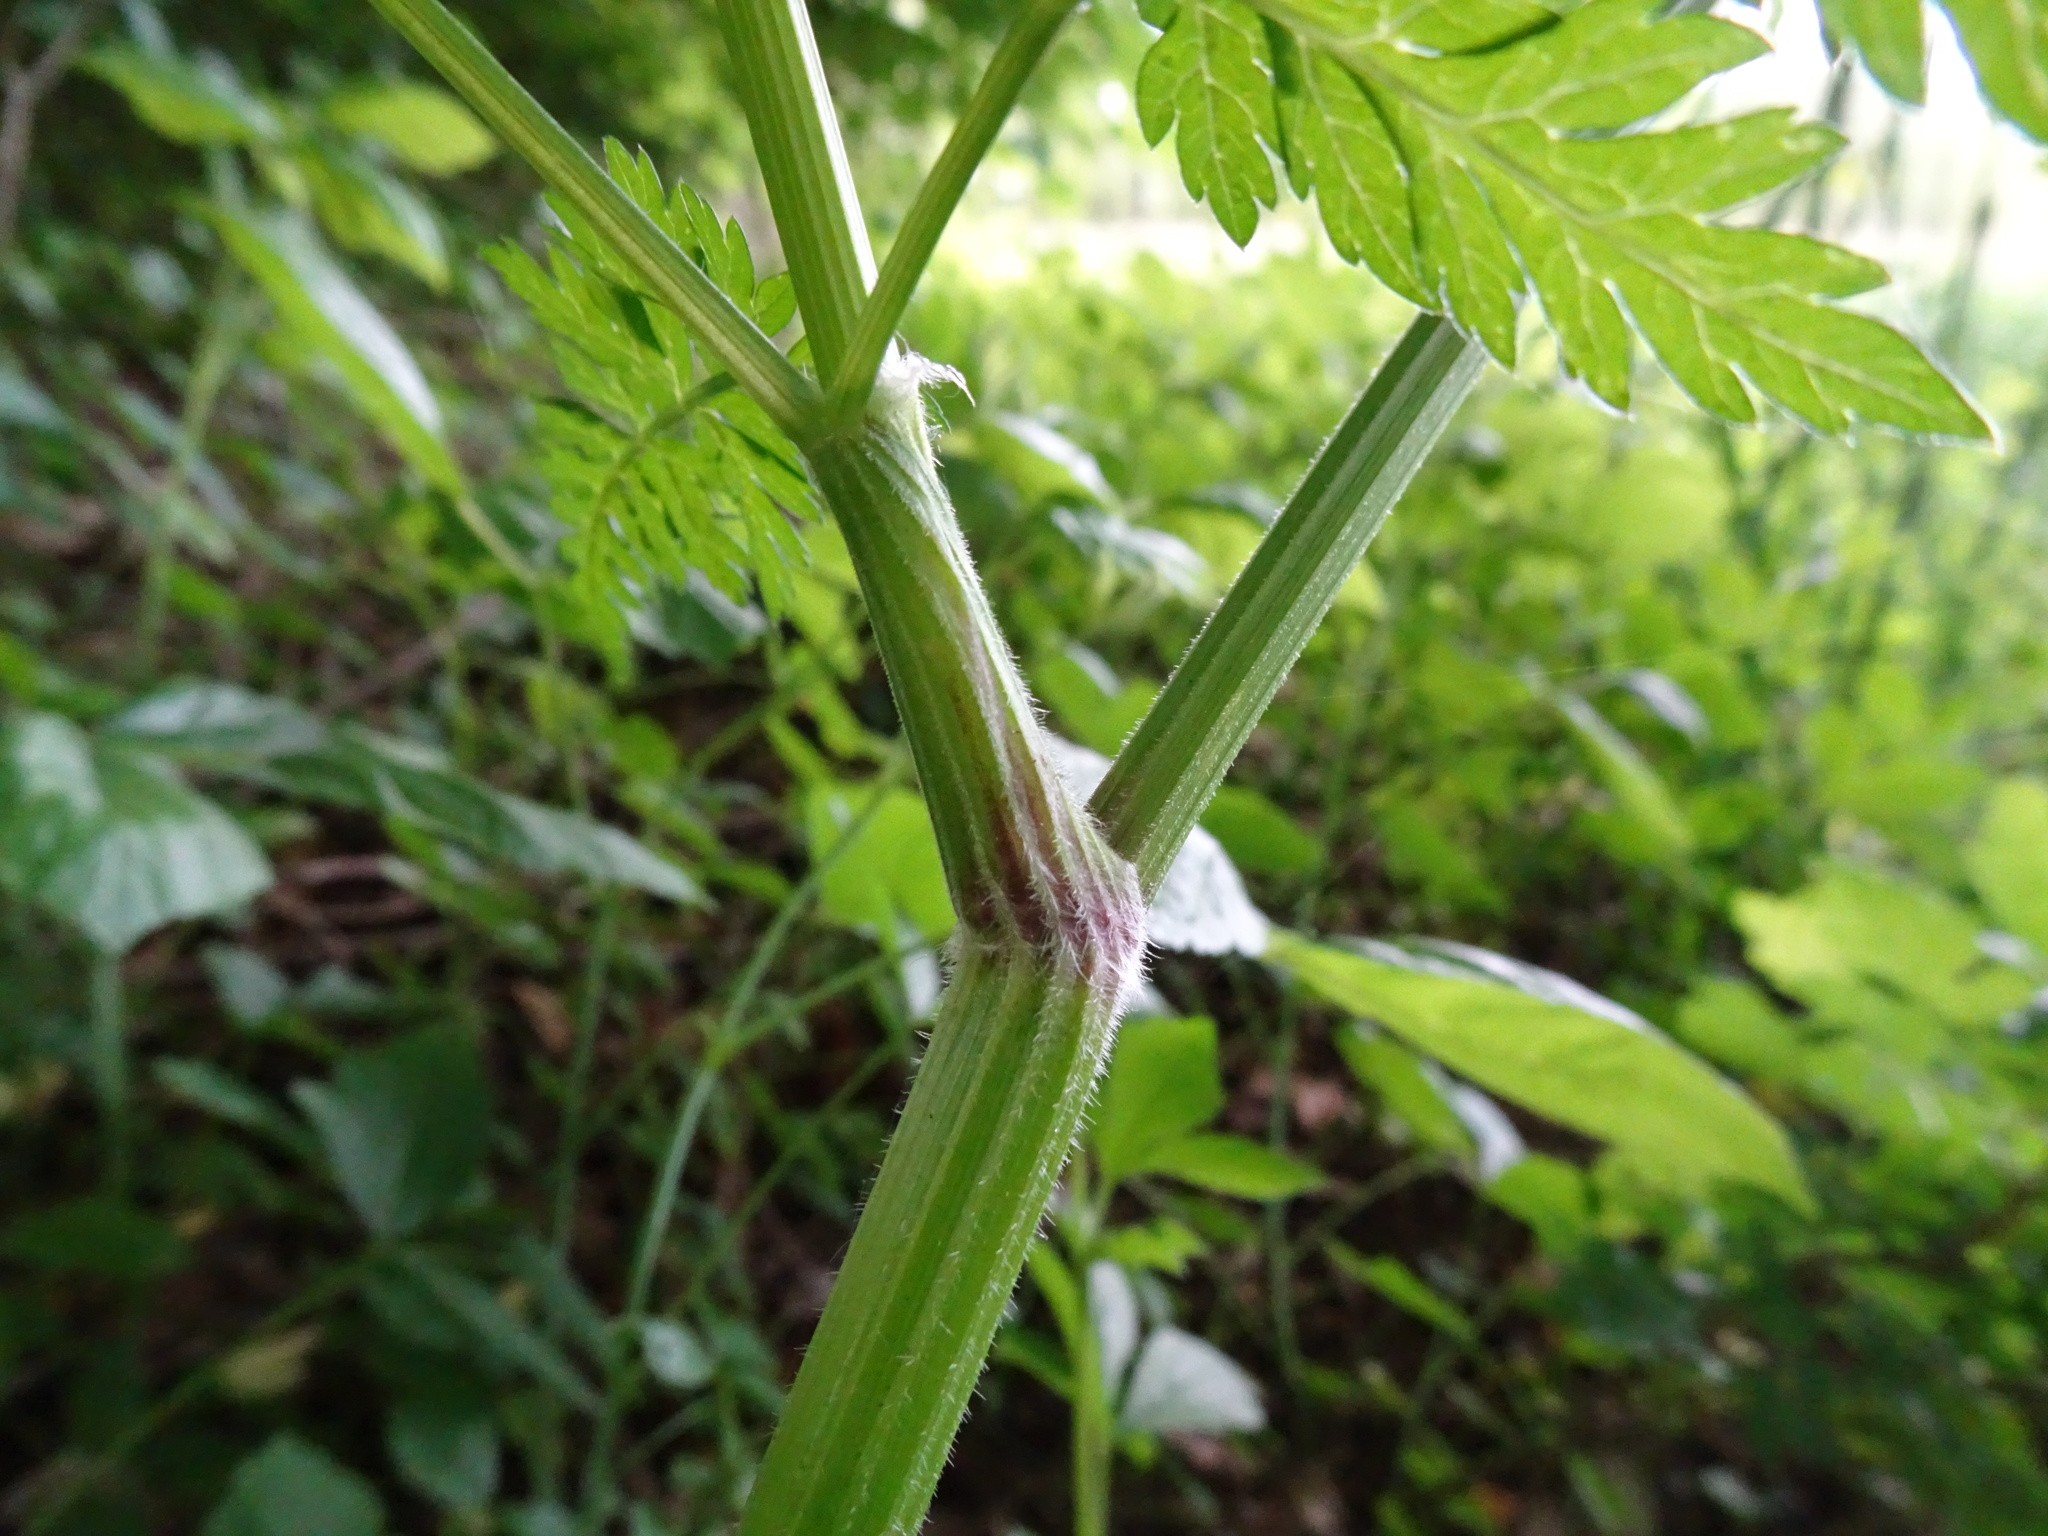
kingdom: Plantae
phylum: Tracheophyta
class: Magnoliopsida
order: Apiales
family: Apiaceae
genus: Anthriscus
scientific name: Anthriscus sylvestris
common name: Cow parsley
